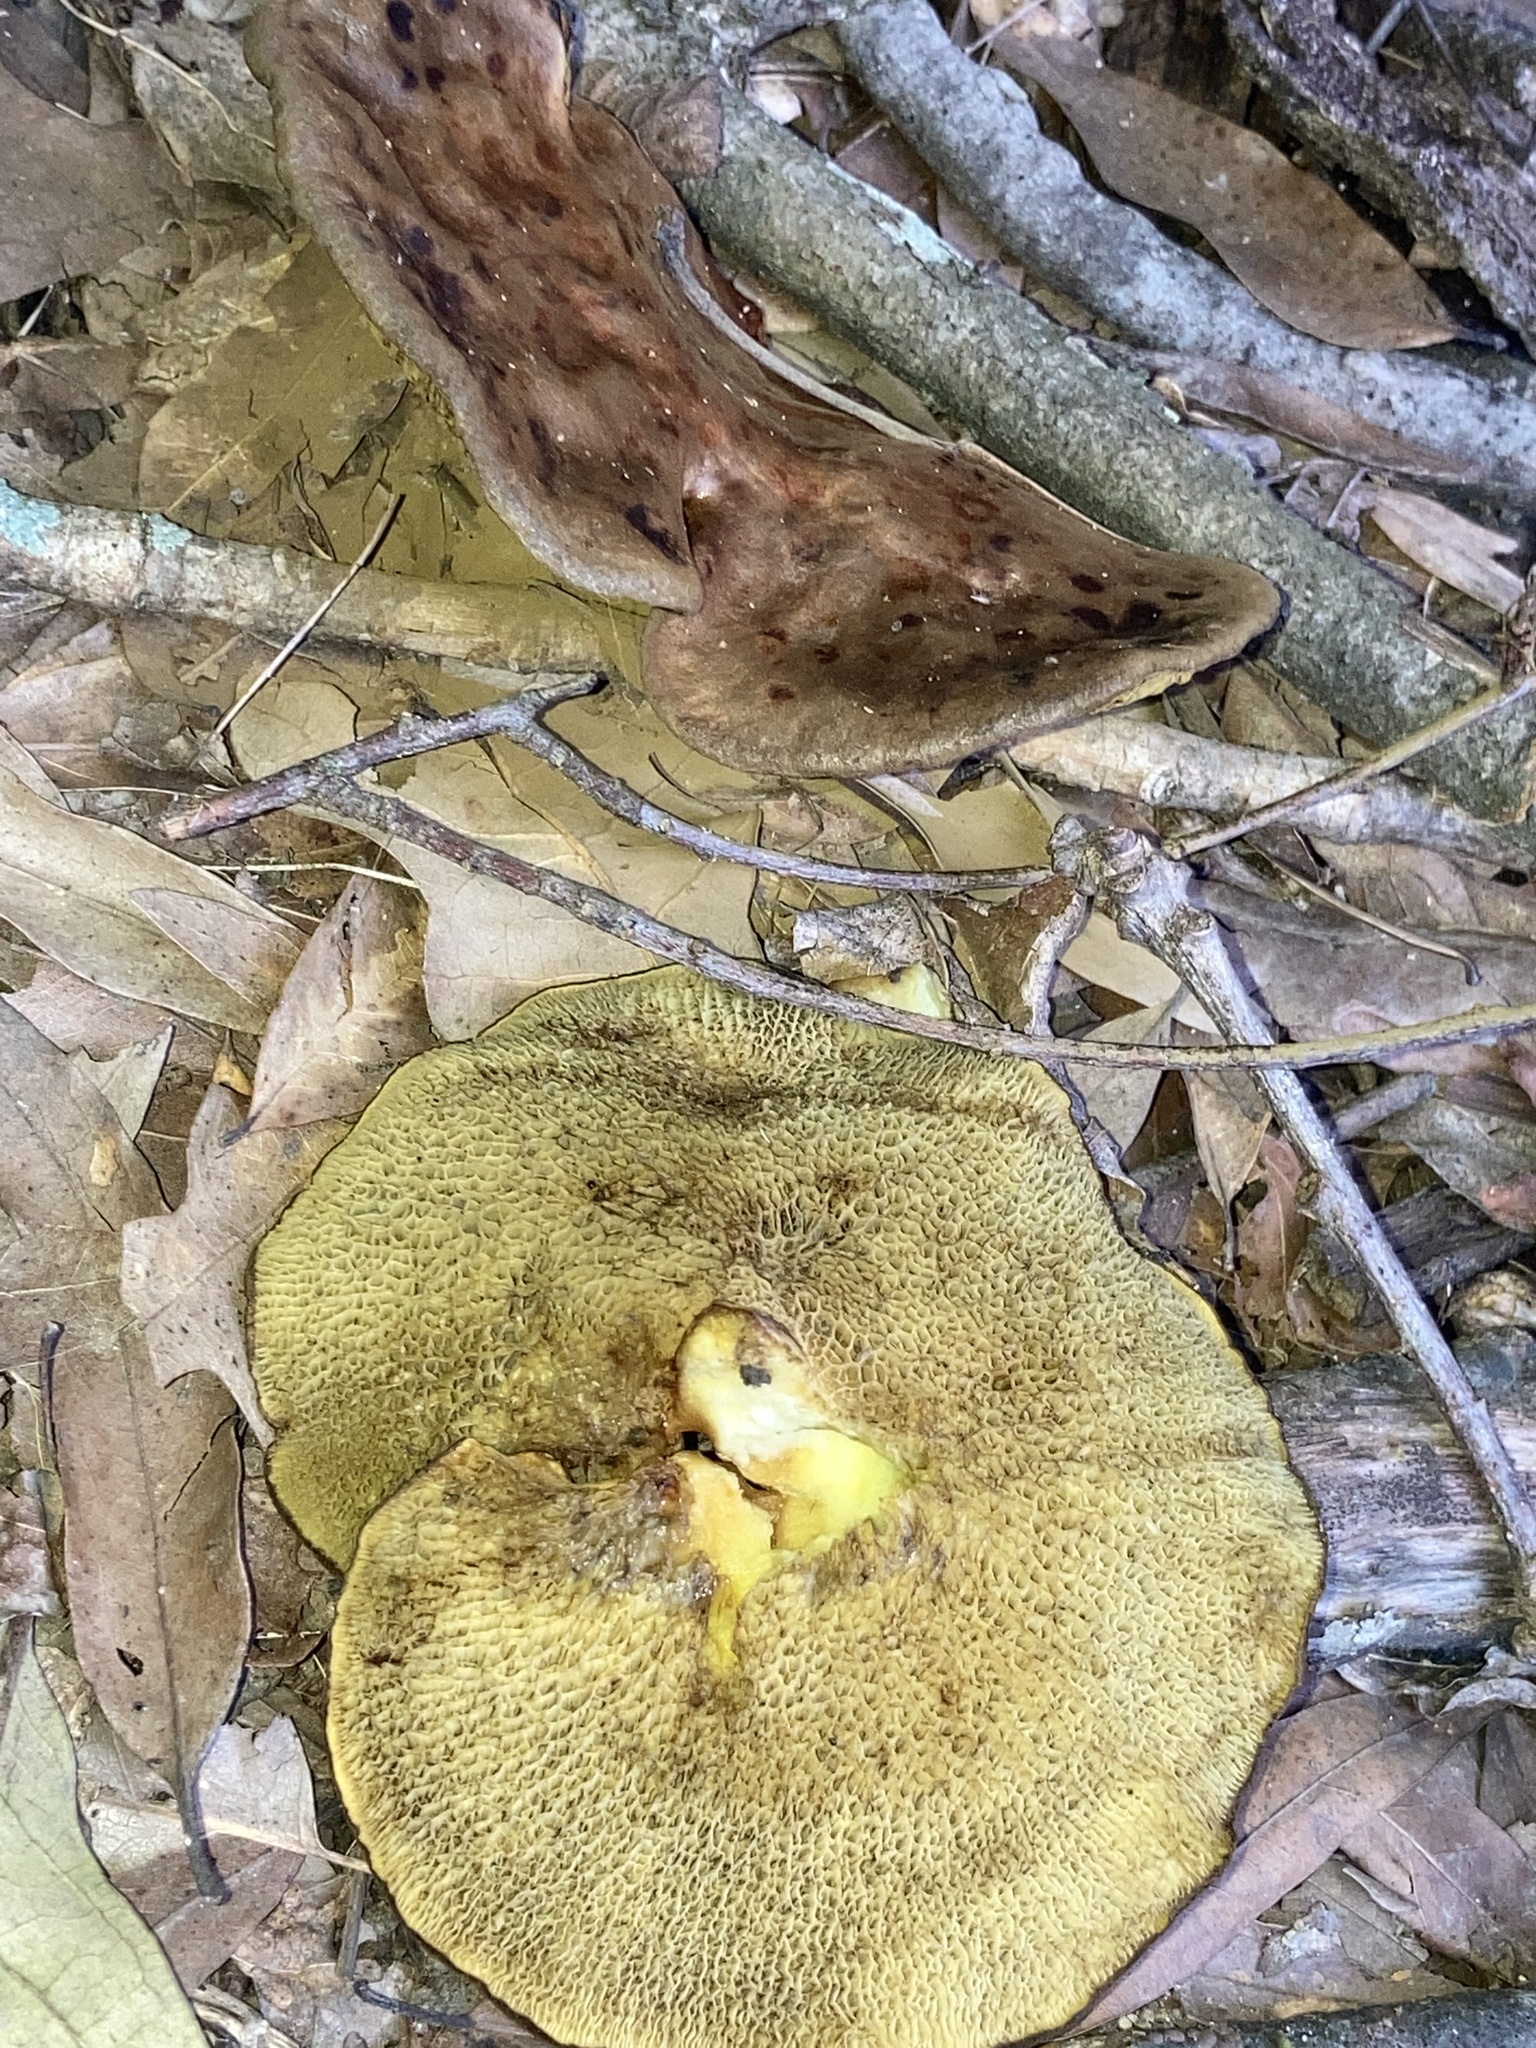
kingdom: Fungi
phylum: Basidiomycota
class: Agaricomycetes
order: Boletales
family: Boletinellaceae
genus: Boletinellus
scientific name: Boletinellus merulioides
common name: Ash tree bolete
